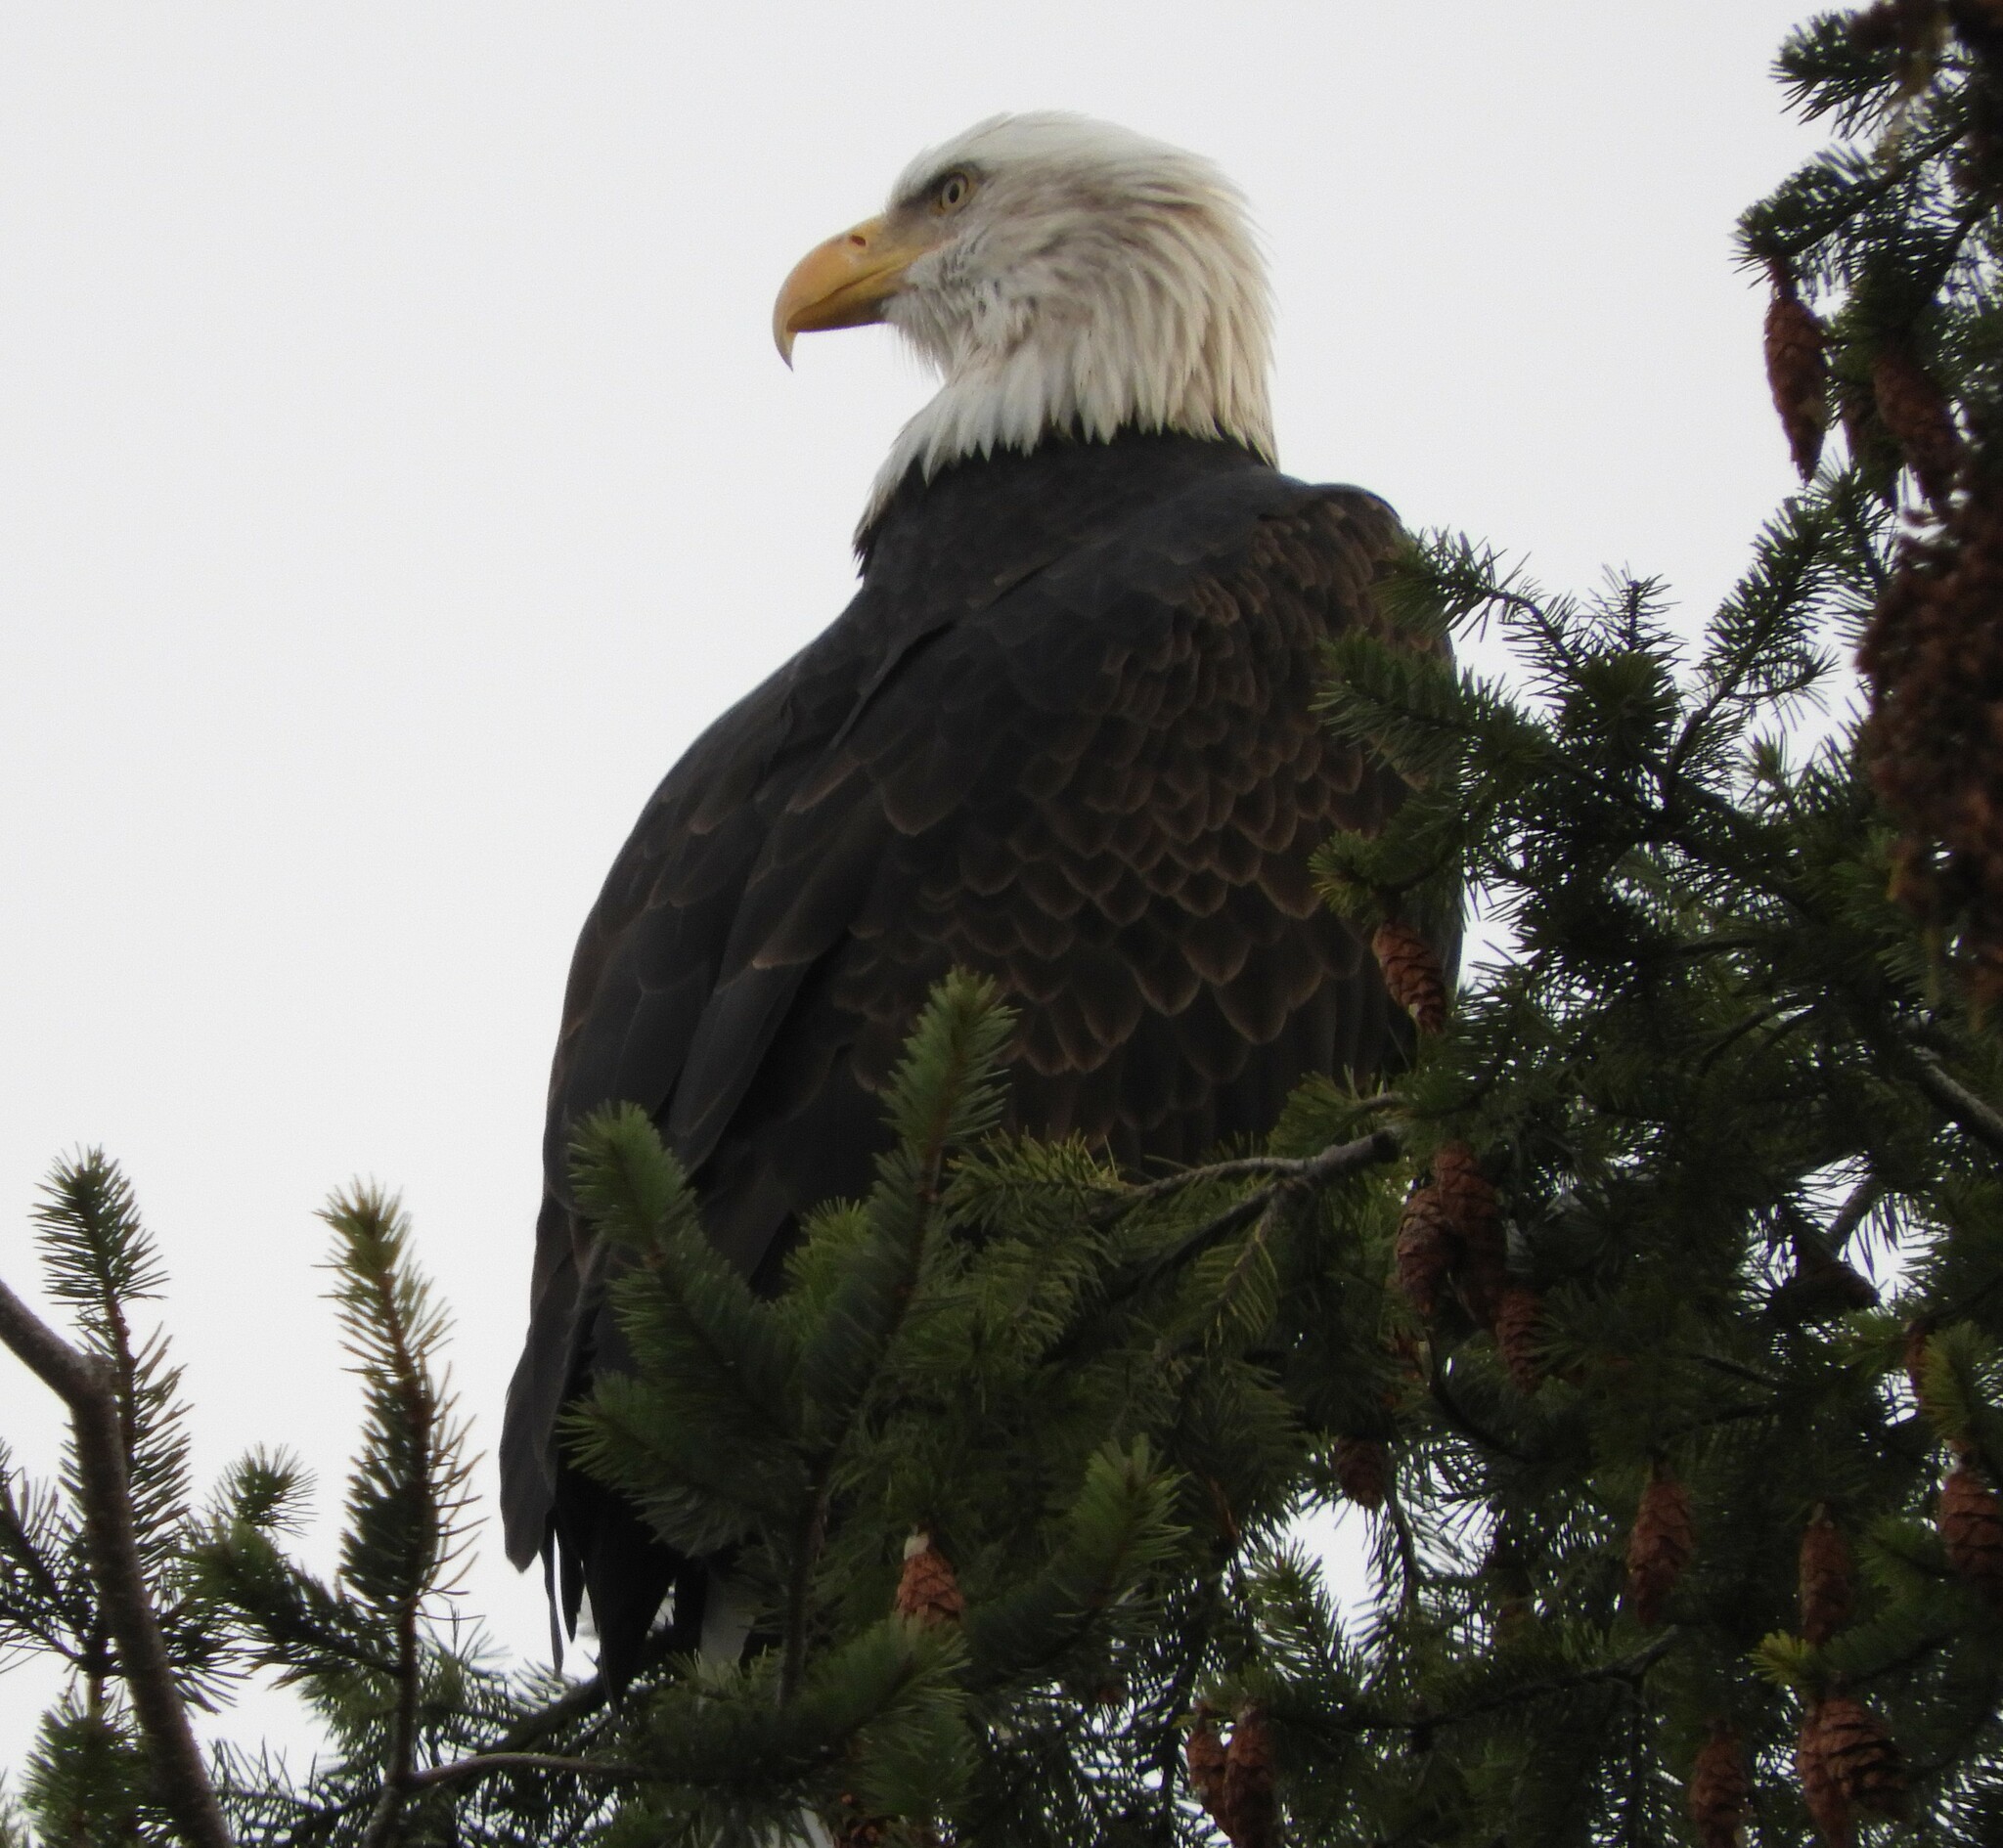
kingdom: Animalia
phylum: Chordata
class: Aves
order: Accipitriformes
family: Accipitridae
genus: Haliaeetus
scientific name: Haliaeetus leucocephalus
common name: Bald eagle
